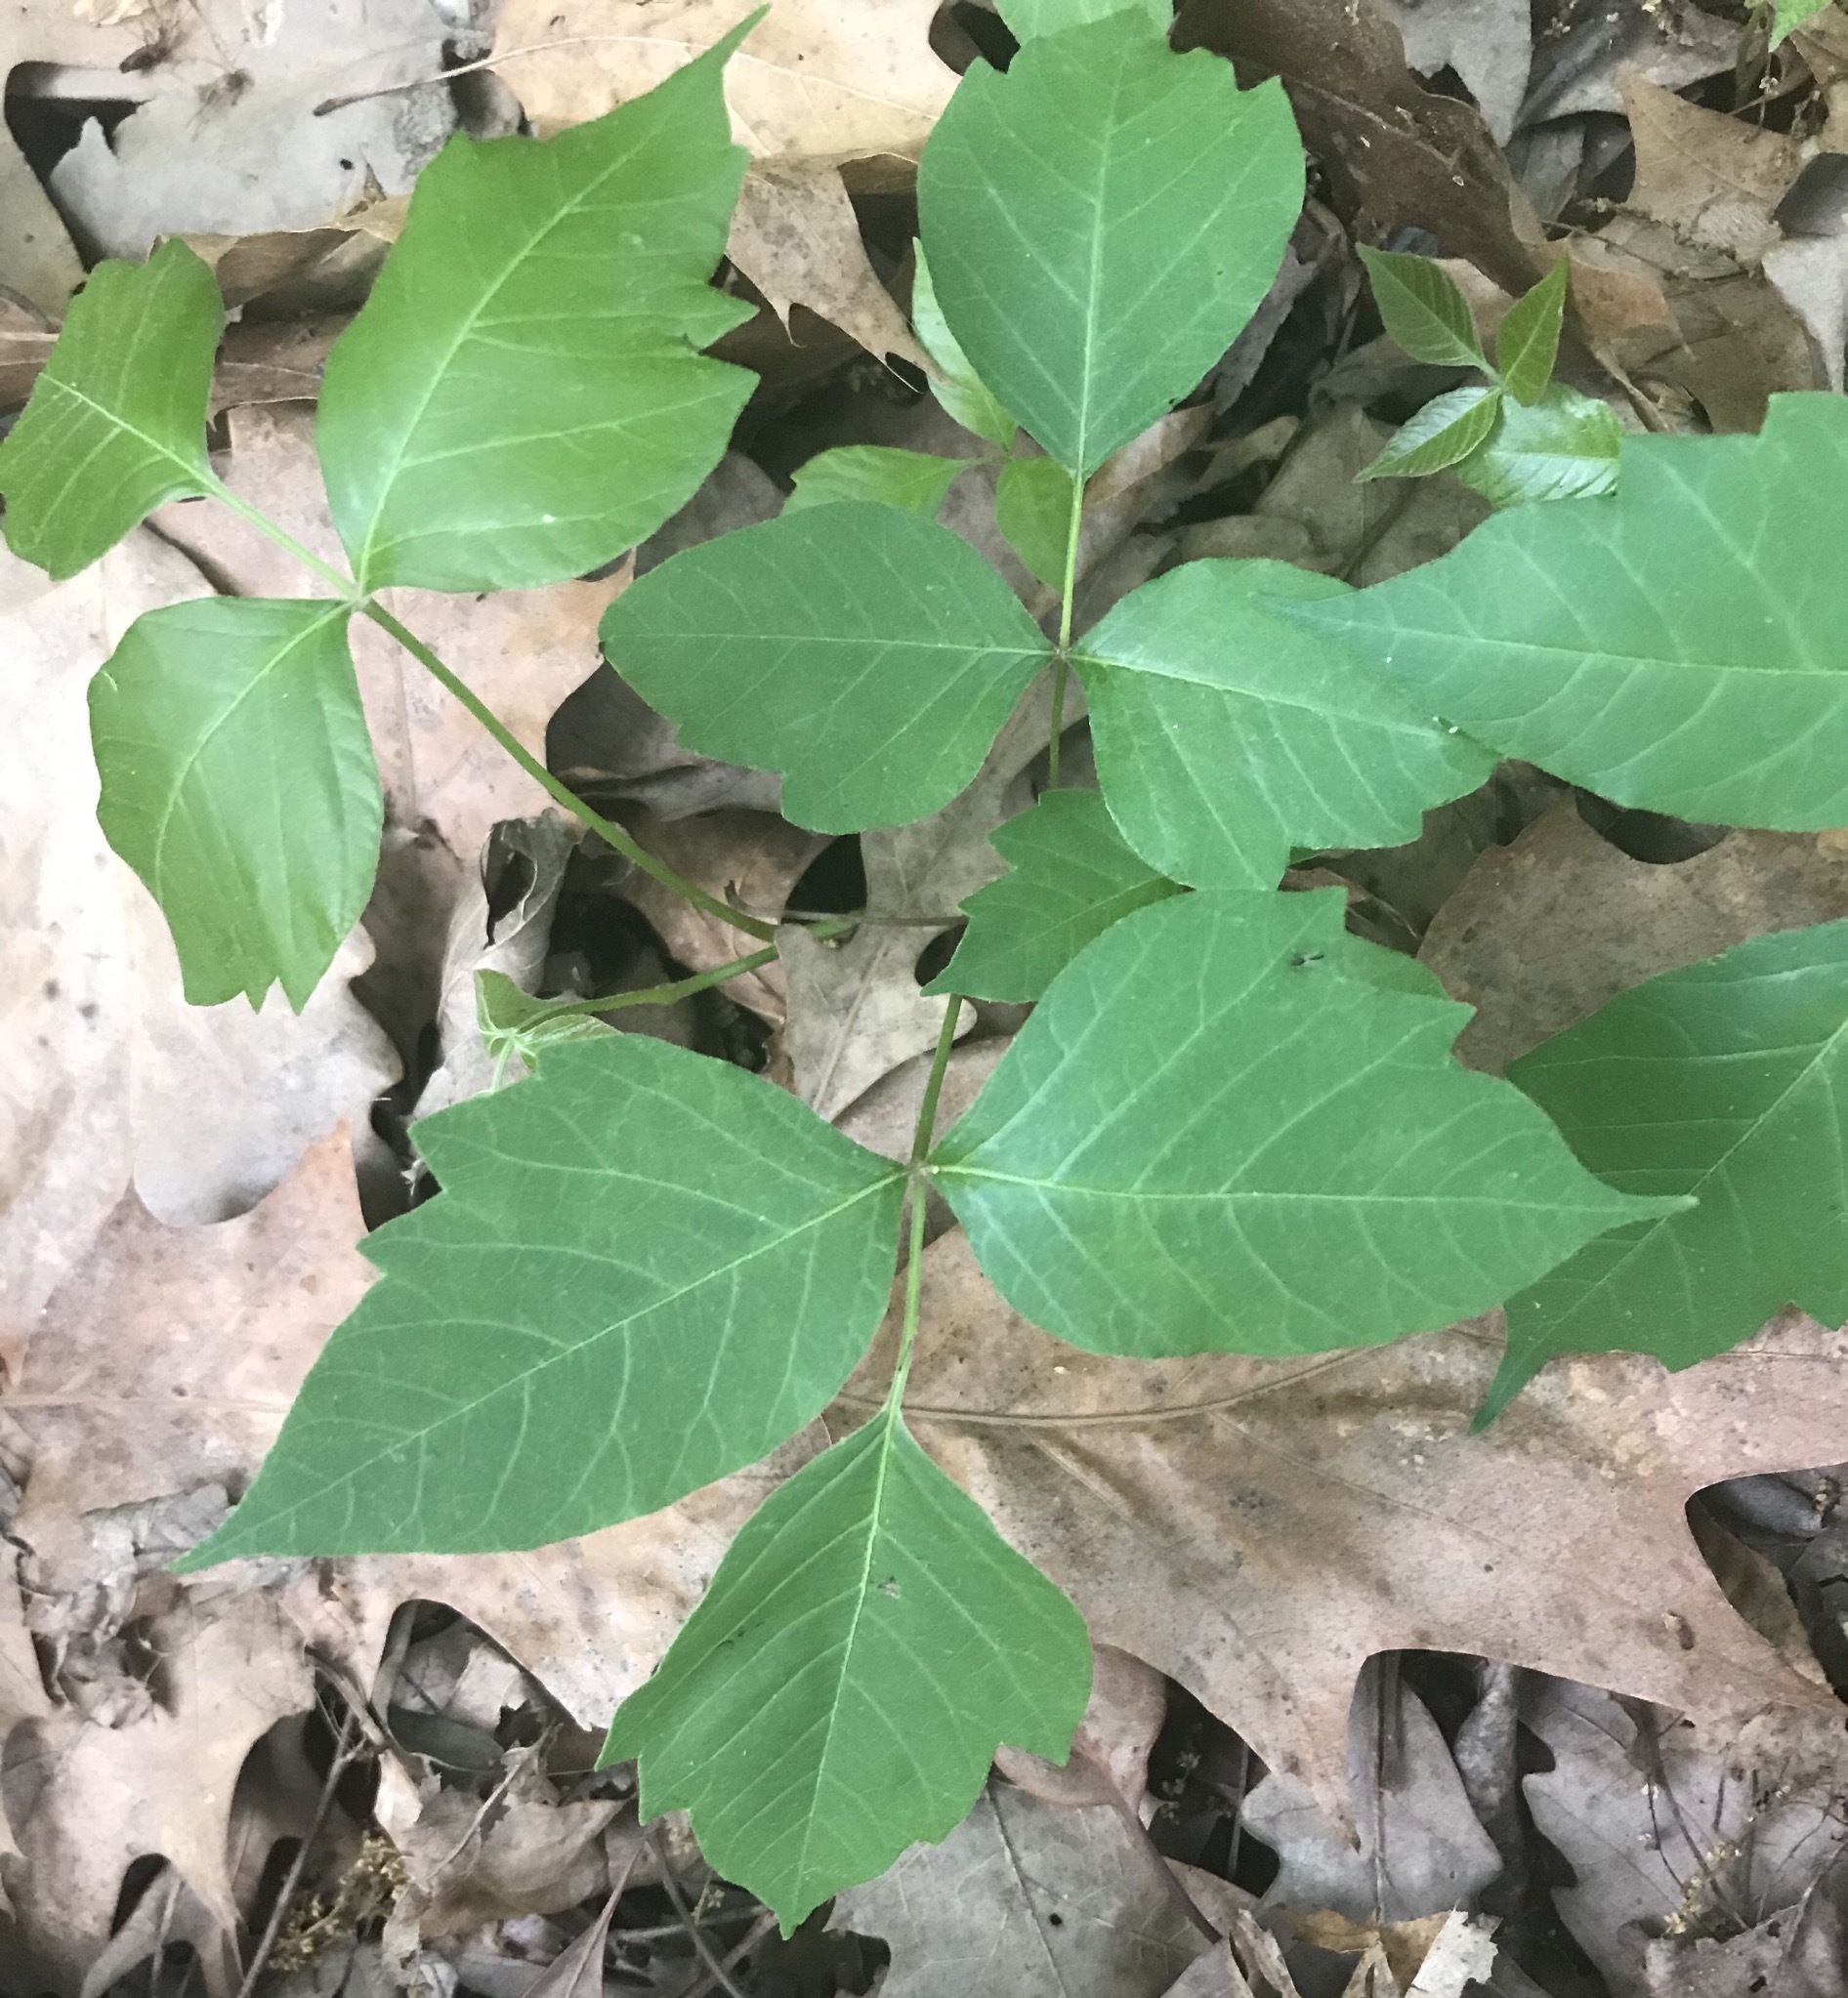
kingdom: Plantae
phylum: Tracheophyta
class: Magnoliopsida
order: Sapindales
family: Anacardiaceae
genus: Toxicodendron
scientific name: Toxicodendron radicans
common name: Poison ivy
